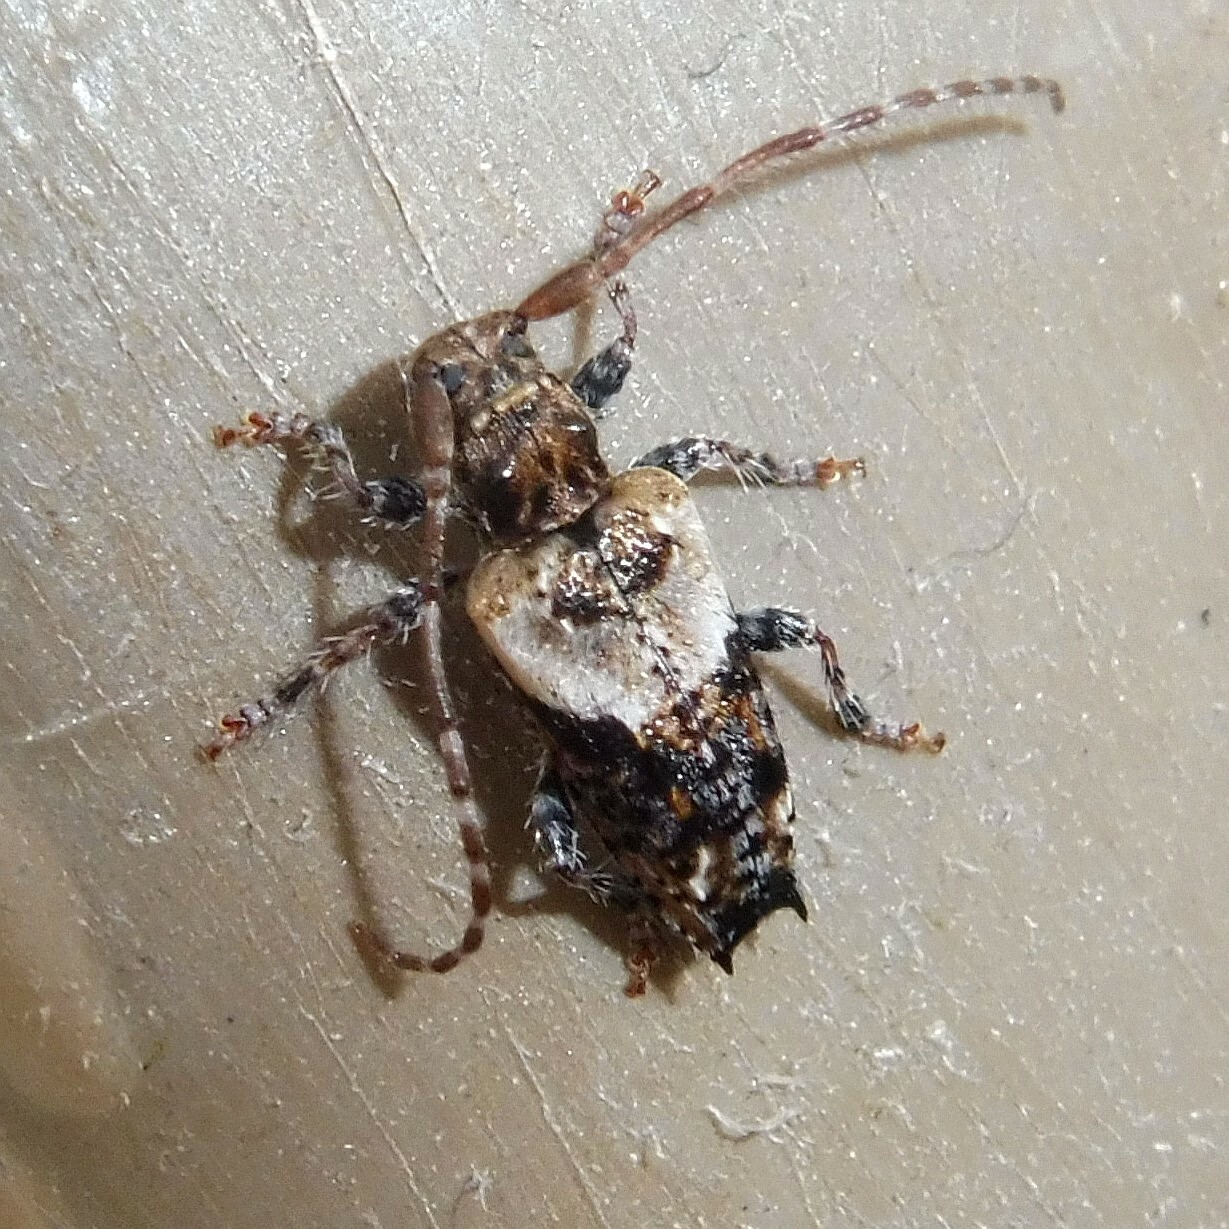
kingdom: Animalia
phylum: Arthropoda
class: Insecta
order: Coleoptera
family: Cerambycidae
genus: Pogonocherus
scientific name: Pogonocherus hispidus
